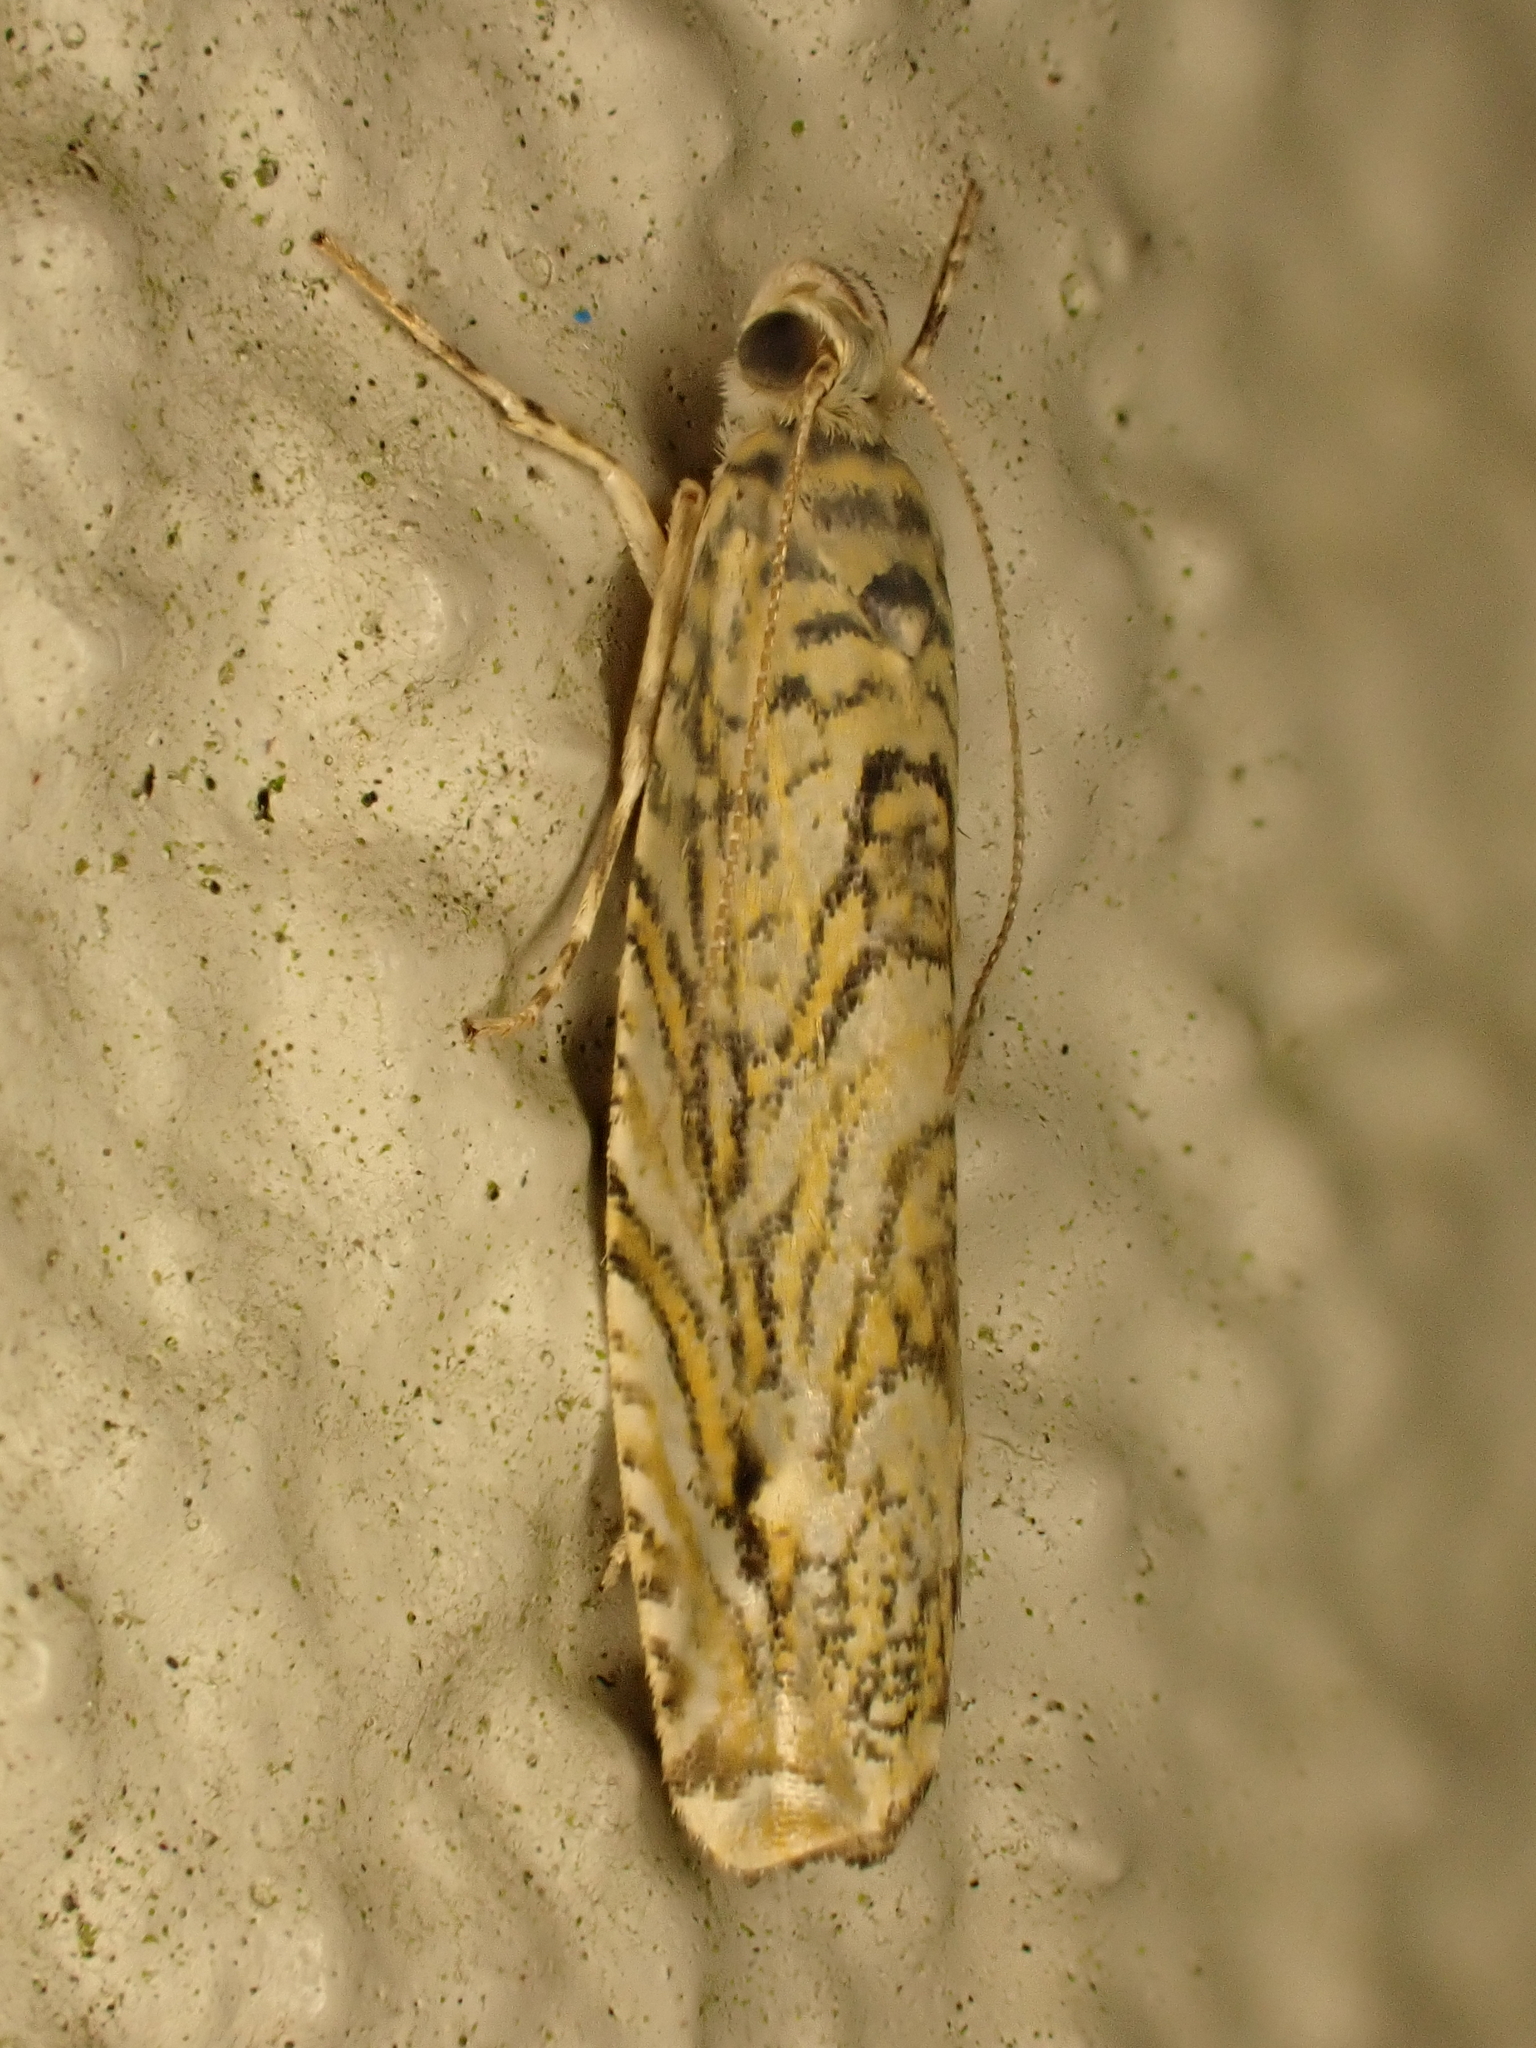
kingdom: Animalia
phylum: Arthropoda
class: Insecta
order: Lepidoptera
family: Plutellidae
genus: Doxophyrtis
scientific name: Doxophyrtis hydrocosma
